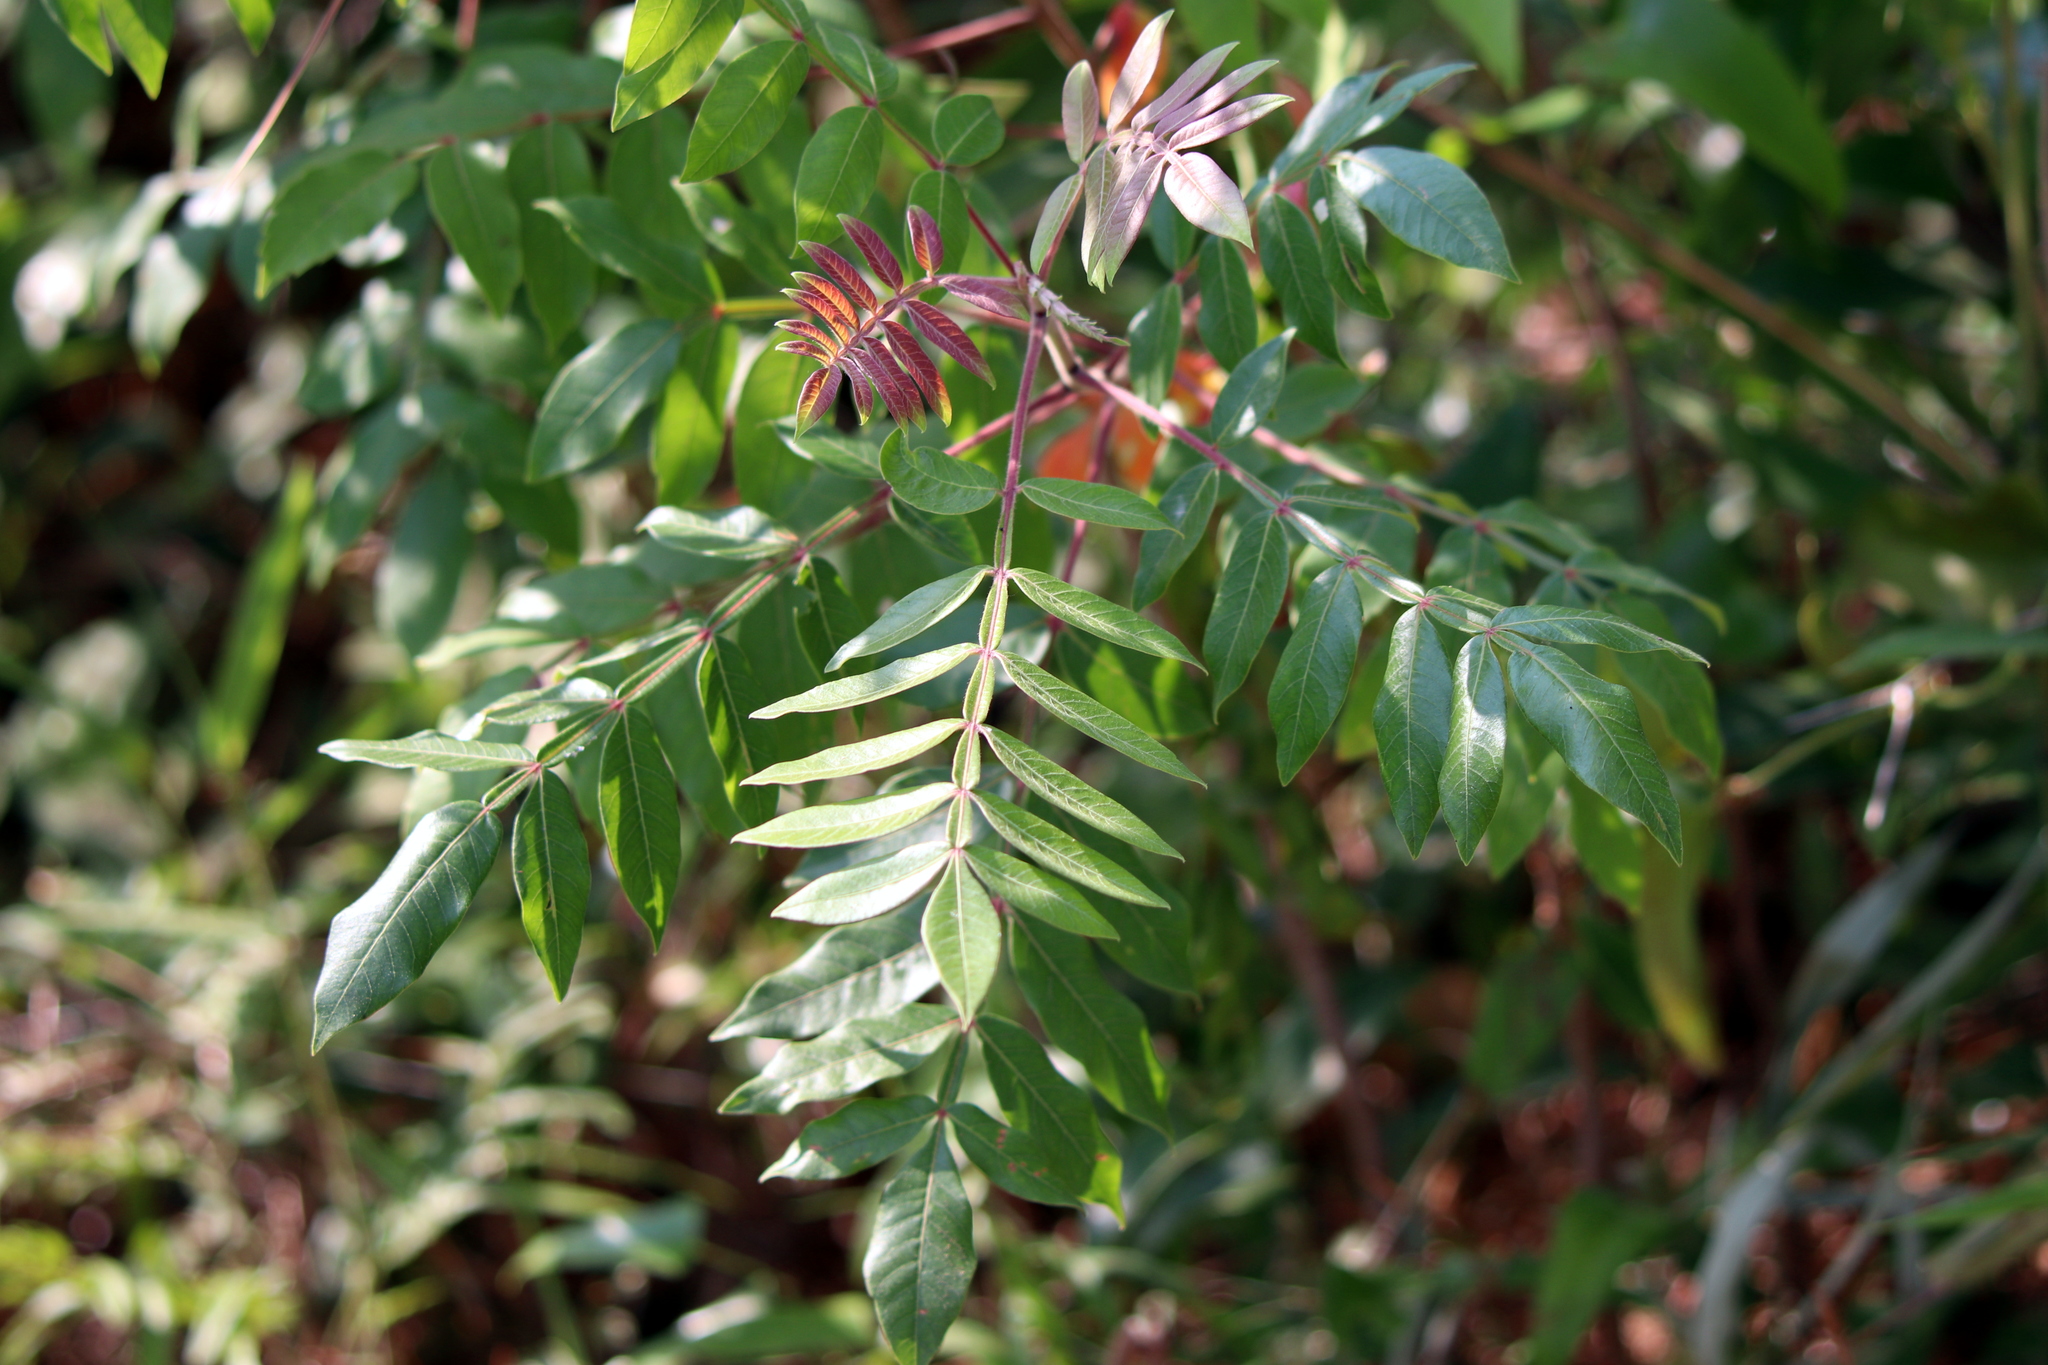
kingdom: Plantae
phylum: Tracheophyta
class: Magnoliopsida
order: Sapindales
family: Anacardiaceae
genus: Rhus
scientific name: Rhus copallina
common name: Shining sumac
